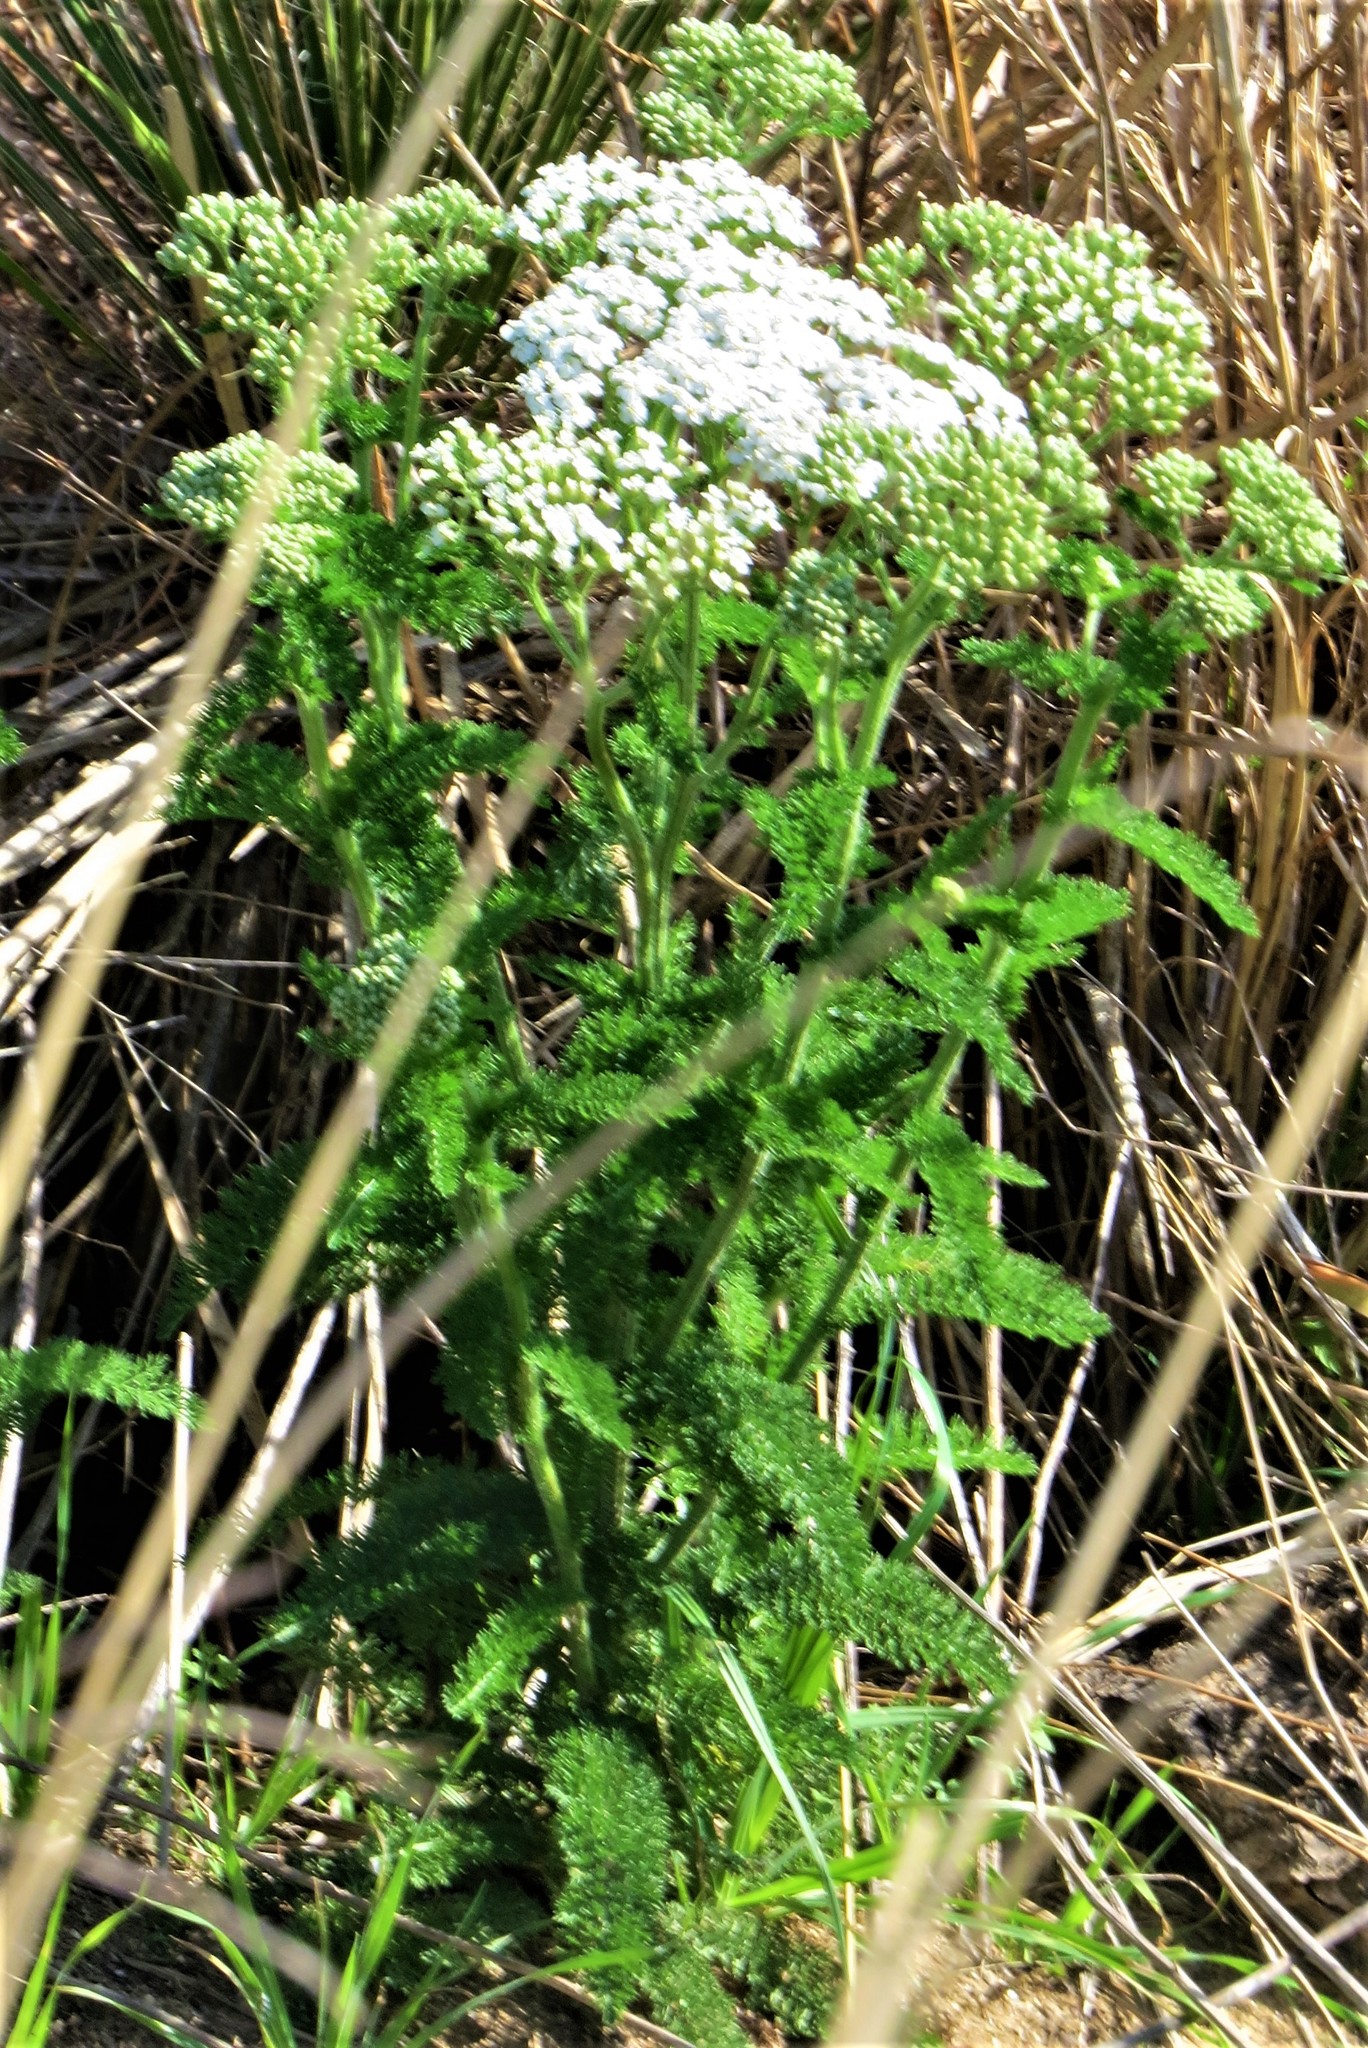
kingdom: Plantae
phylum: Tracheophyta
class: Magnoliopsida
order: Asterales
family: Asteraceae
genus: Achillea
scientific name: Achillea millefolium
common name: Yarrow
